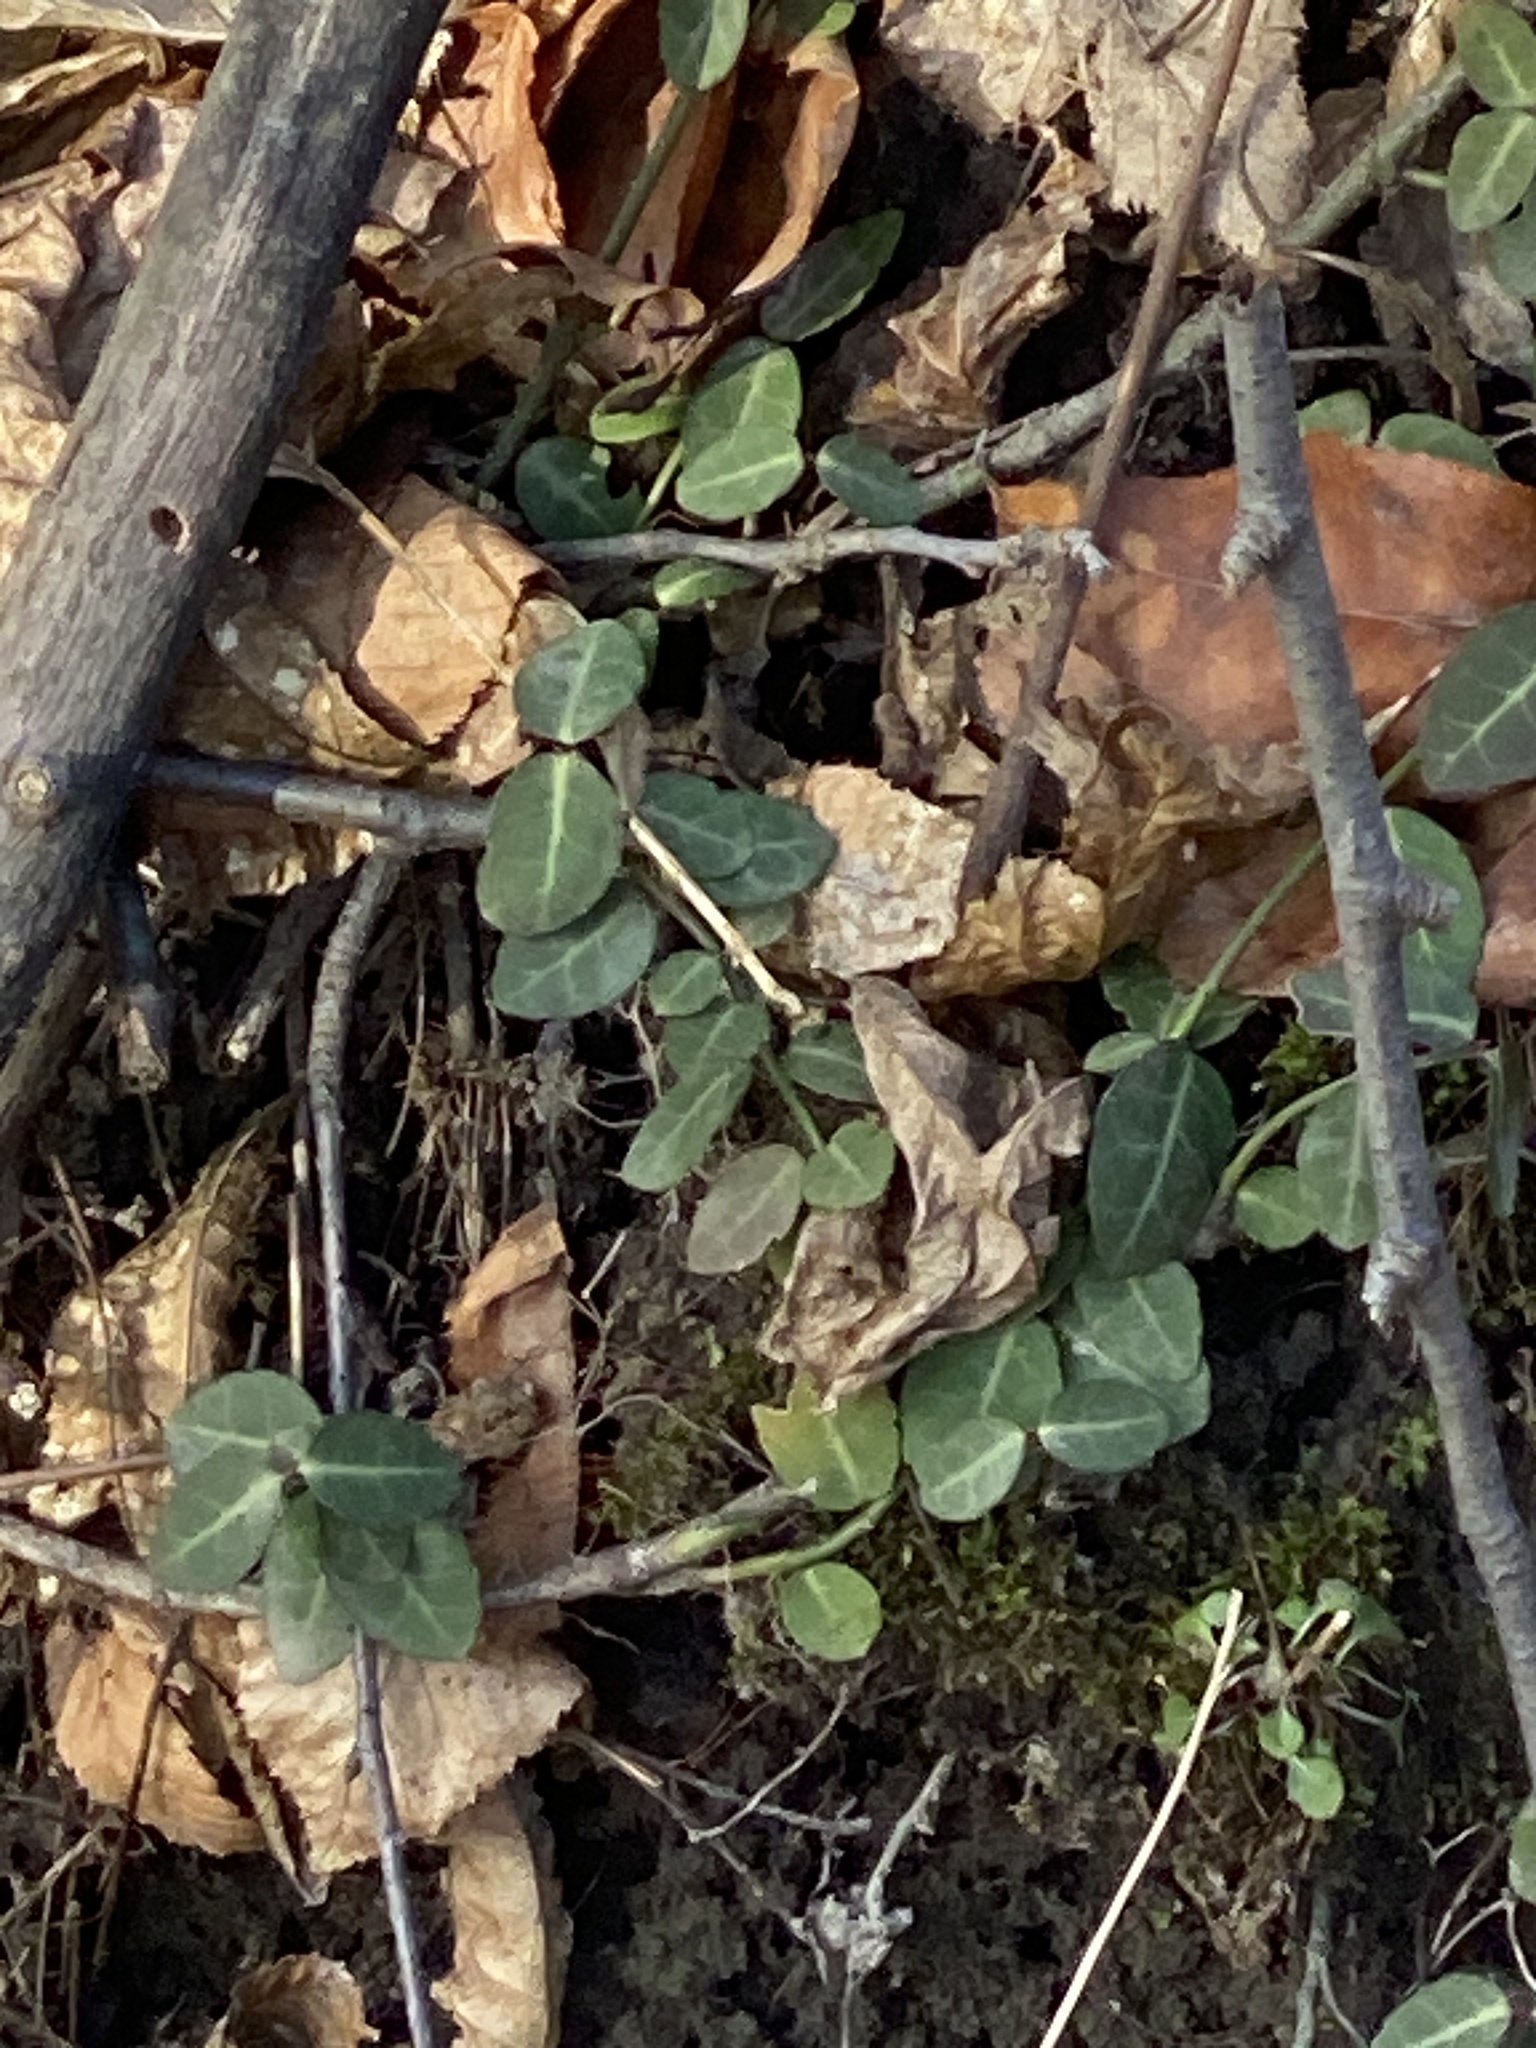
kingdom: Plantae
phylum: Tracheophyta
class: Magnoliopsida
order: Celastrales
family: Celastraceae
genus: Euonymus
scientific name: Euonymus fortunei
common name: Climbing euonymus
